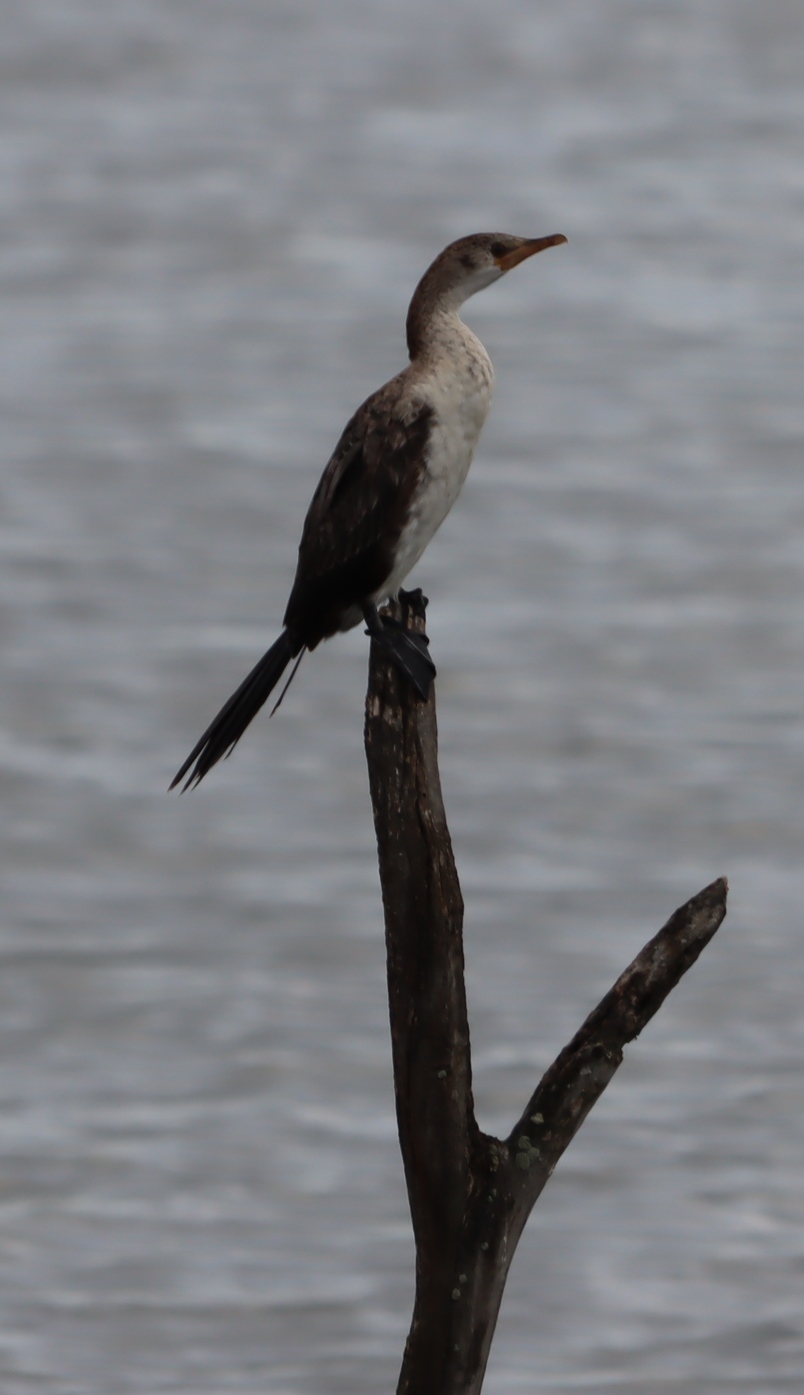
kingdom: Animalia
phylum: Chordata
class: Aves
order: Suliformes
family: Phalacrocoracidae
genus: Microcarbo
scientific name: Microcarbo africanus
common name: Long-tailed cormorant
